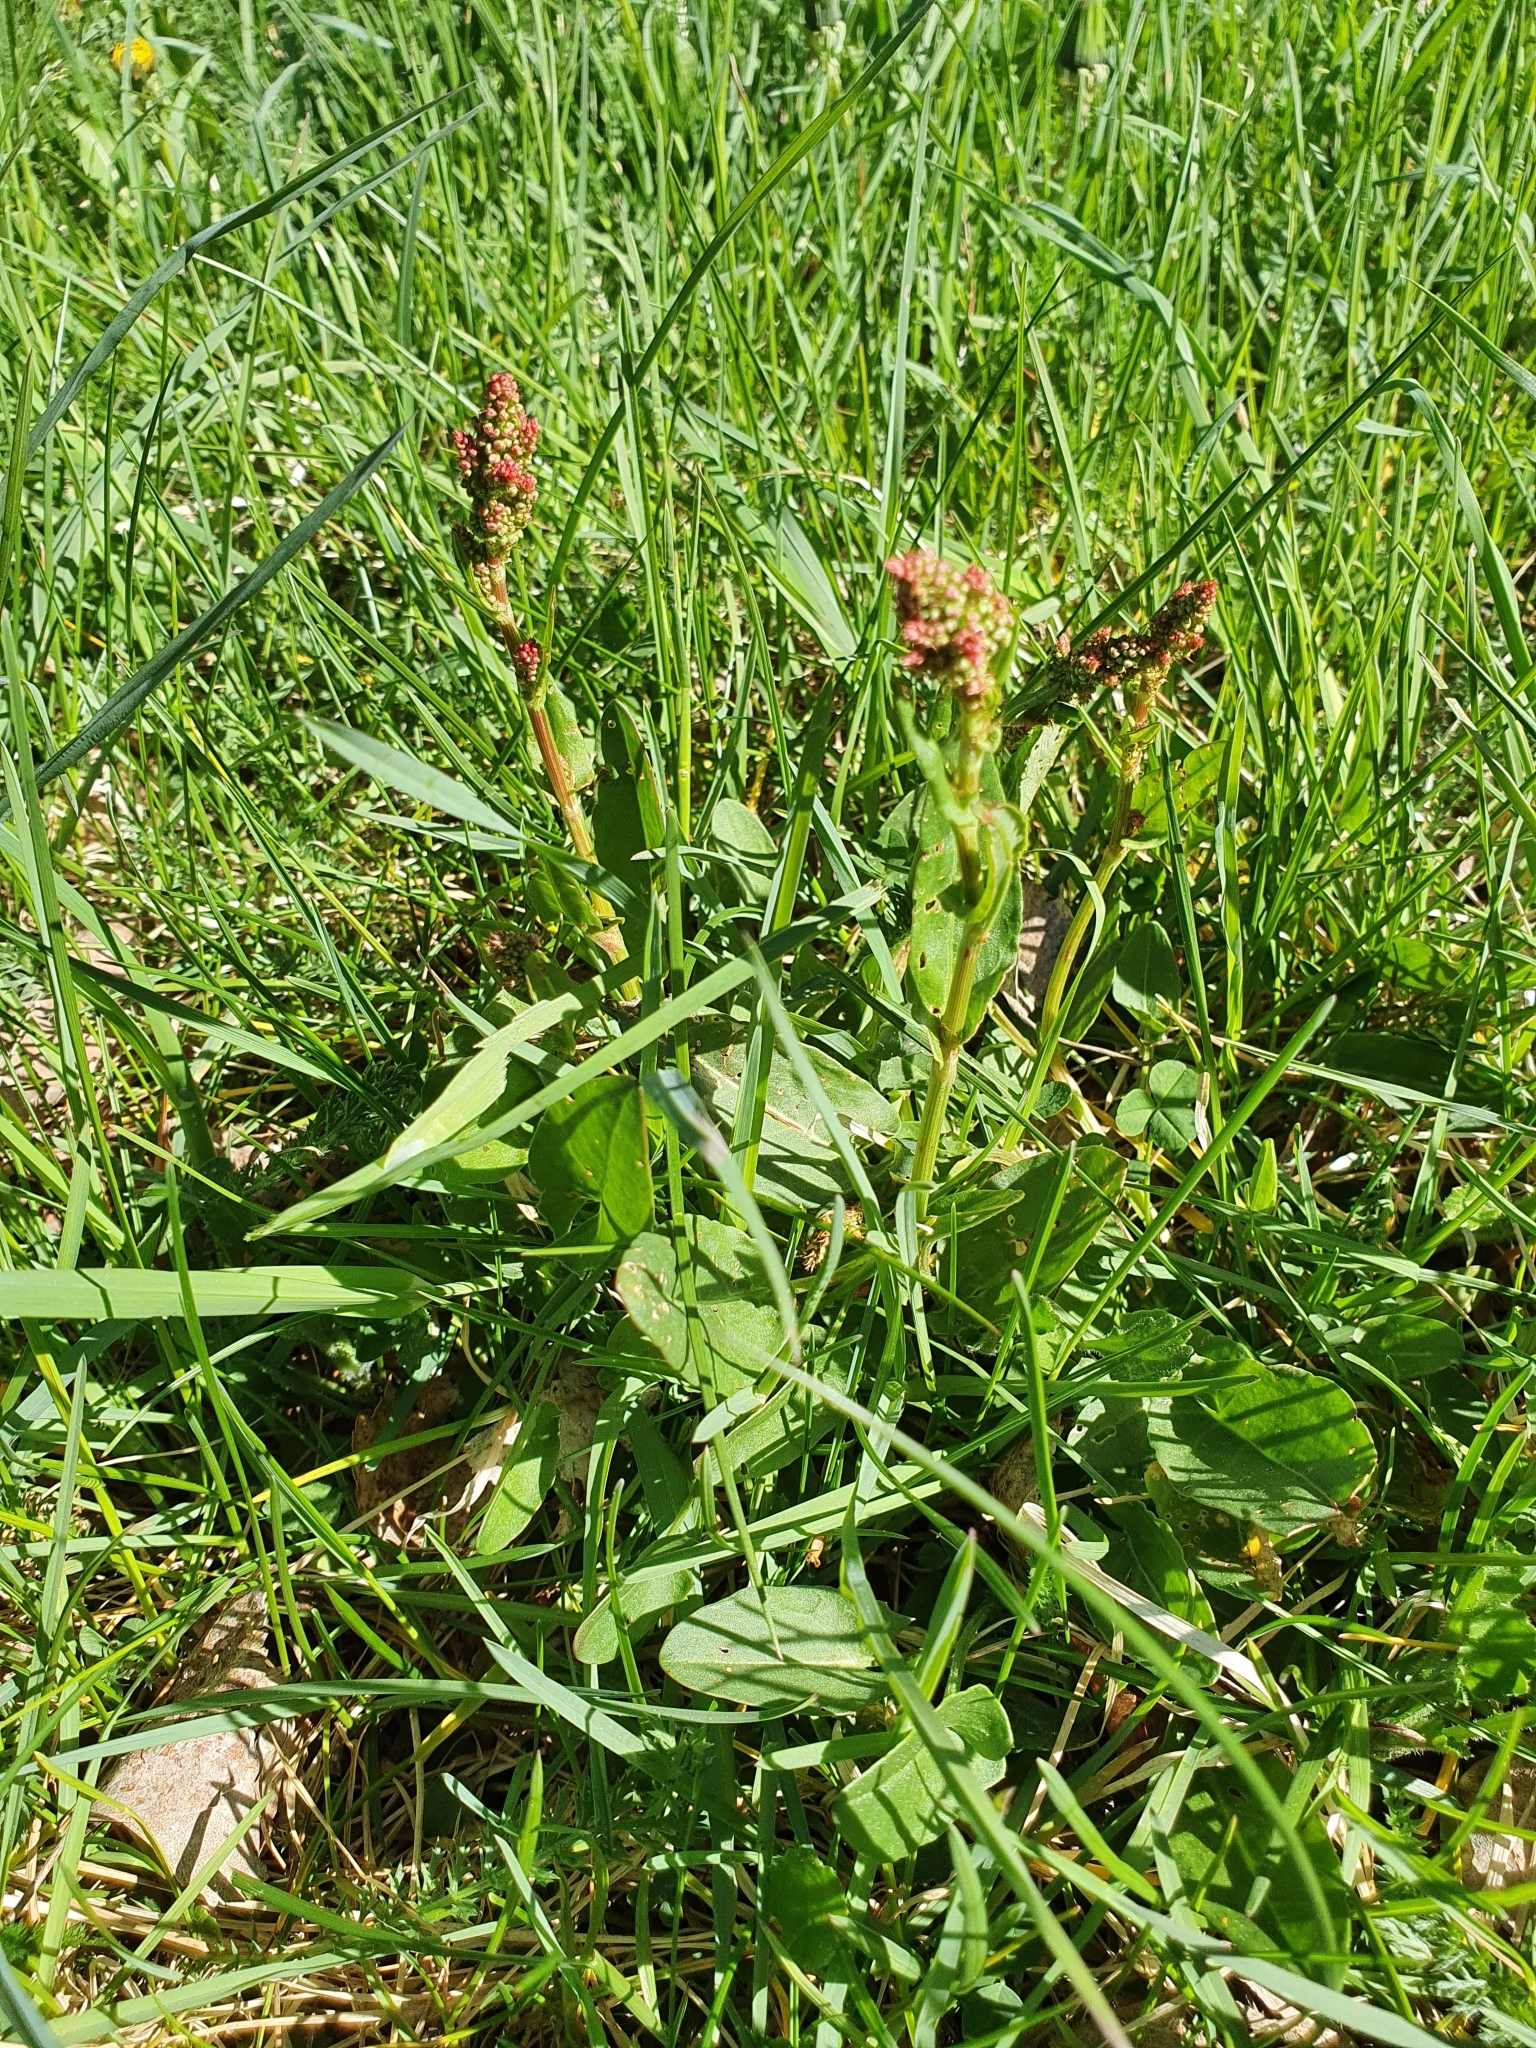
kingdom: Plantae
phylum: Tracheophyta
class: Magnoliopsida
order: Caryophyllales
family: Polygonaceae
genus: Rumex
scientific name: Rumex acetosa
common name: Garden sorrel
